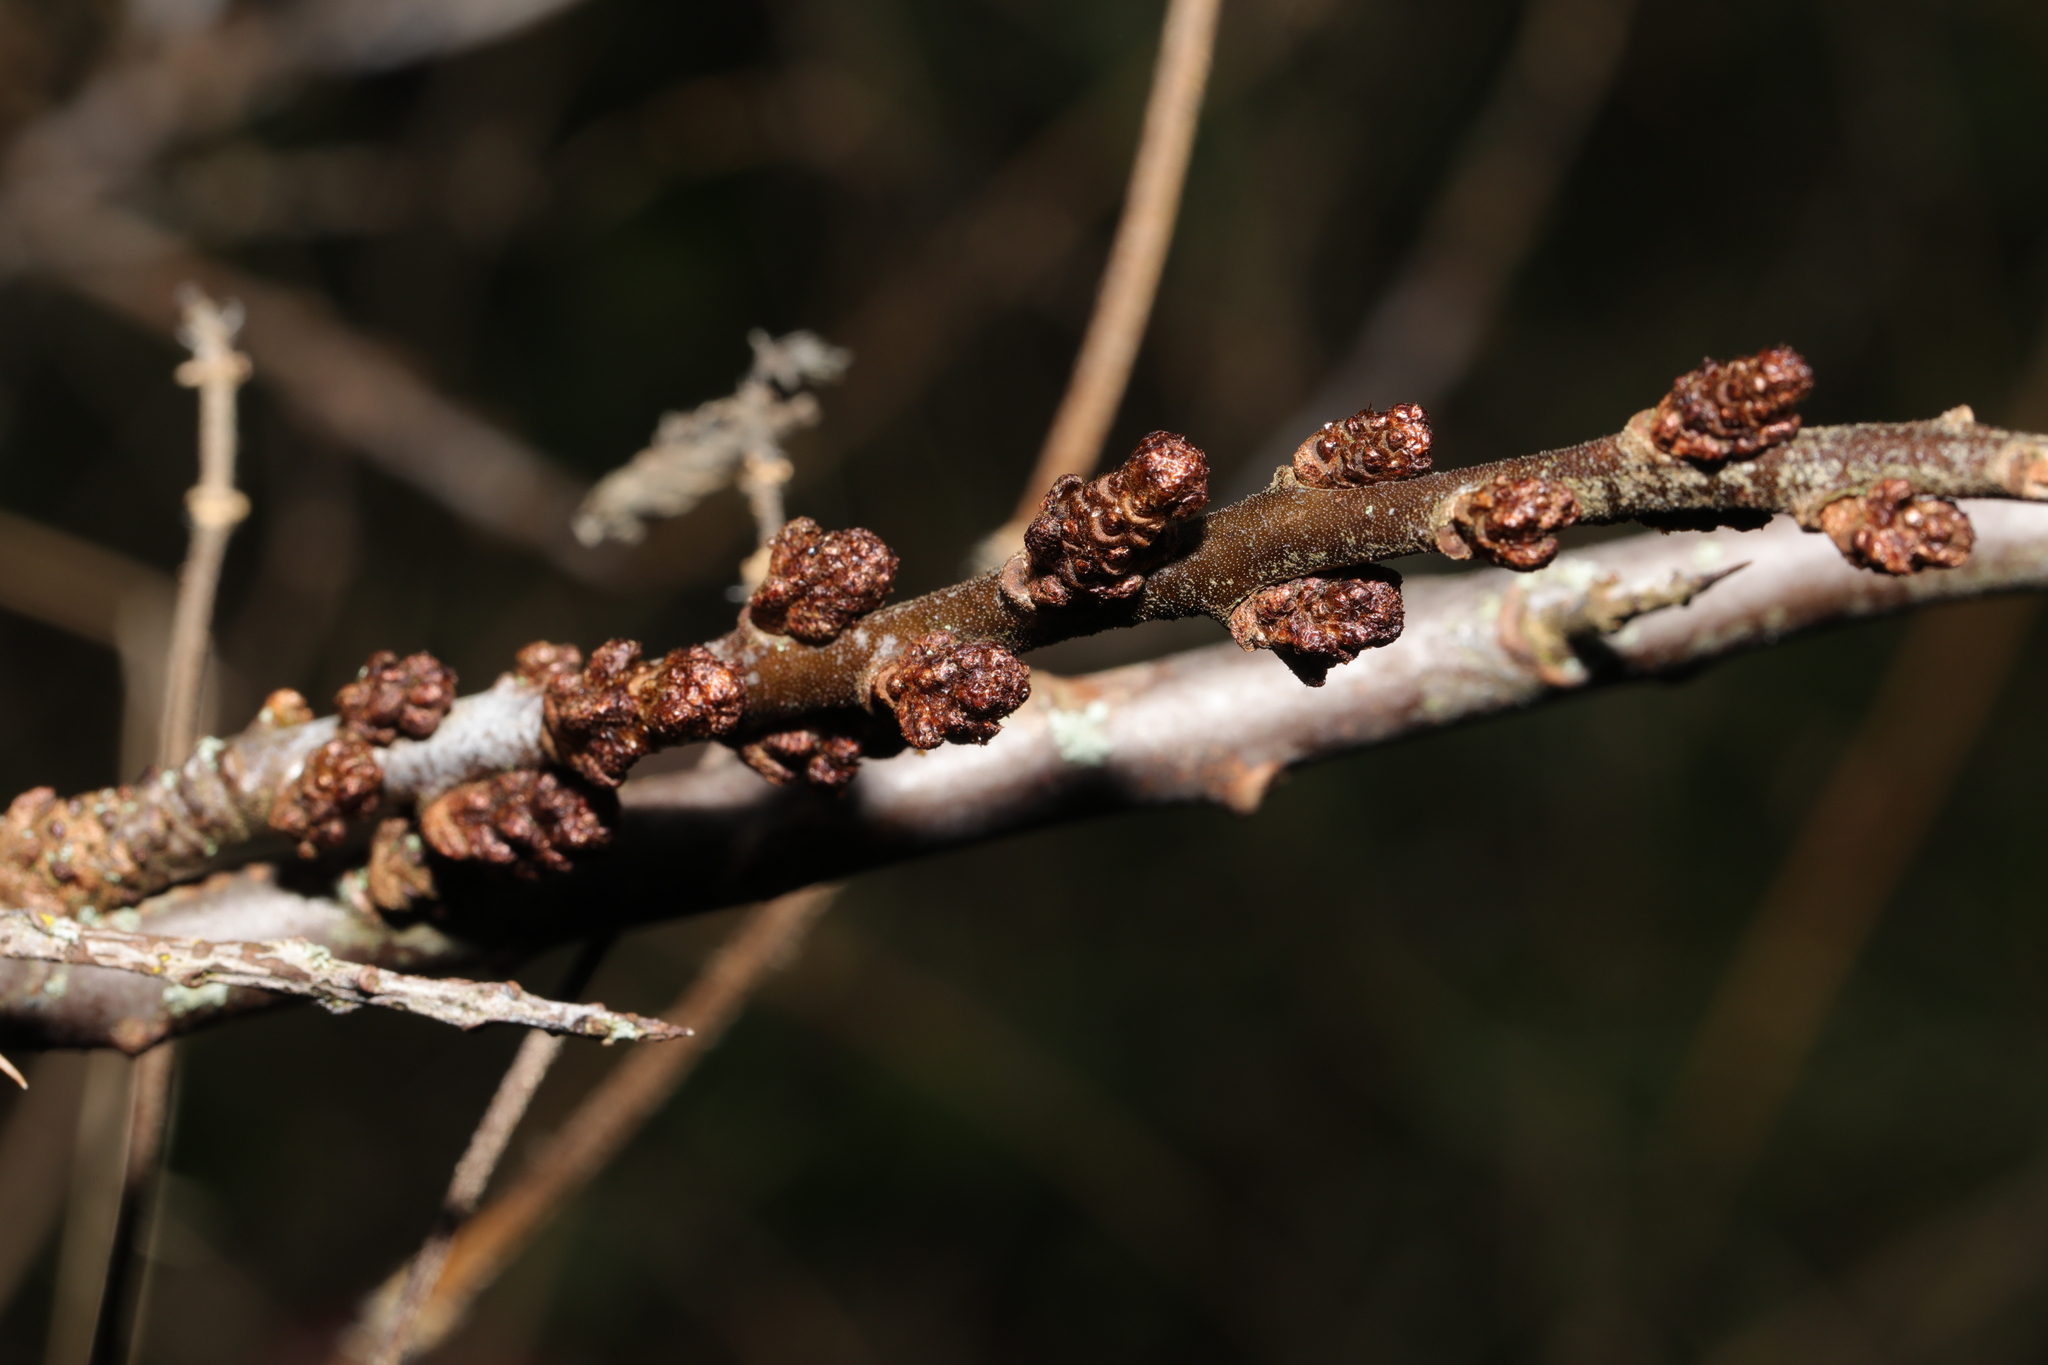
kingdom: Plantae
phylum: Tracheophyta
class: Magnoliopsida
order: Rosales
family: Elaeagnaceae
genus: Hippophae
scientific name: Hippophae rhamnoides
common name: Sea-buckthorn
